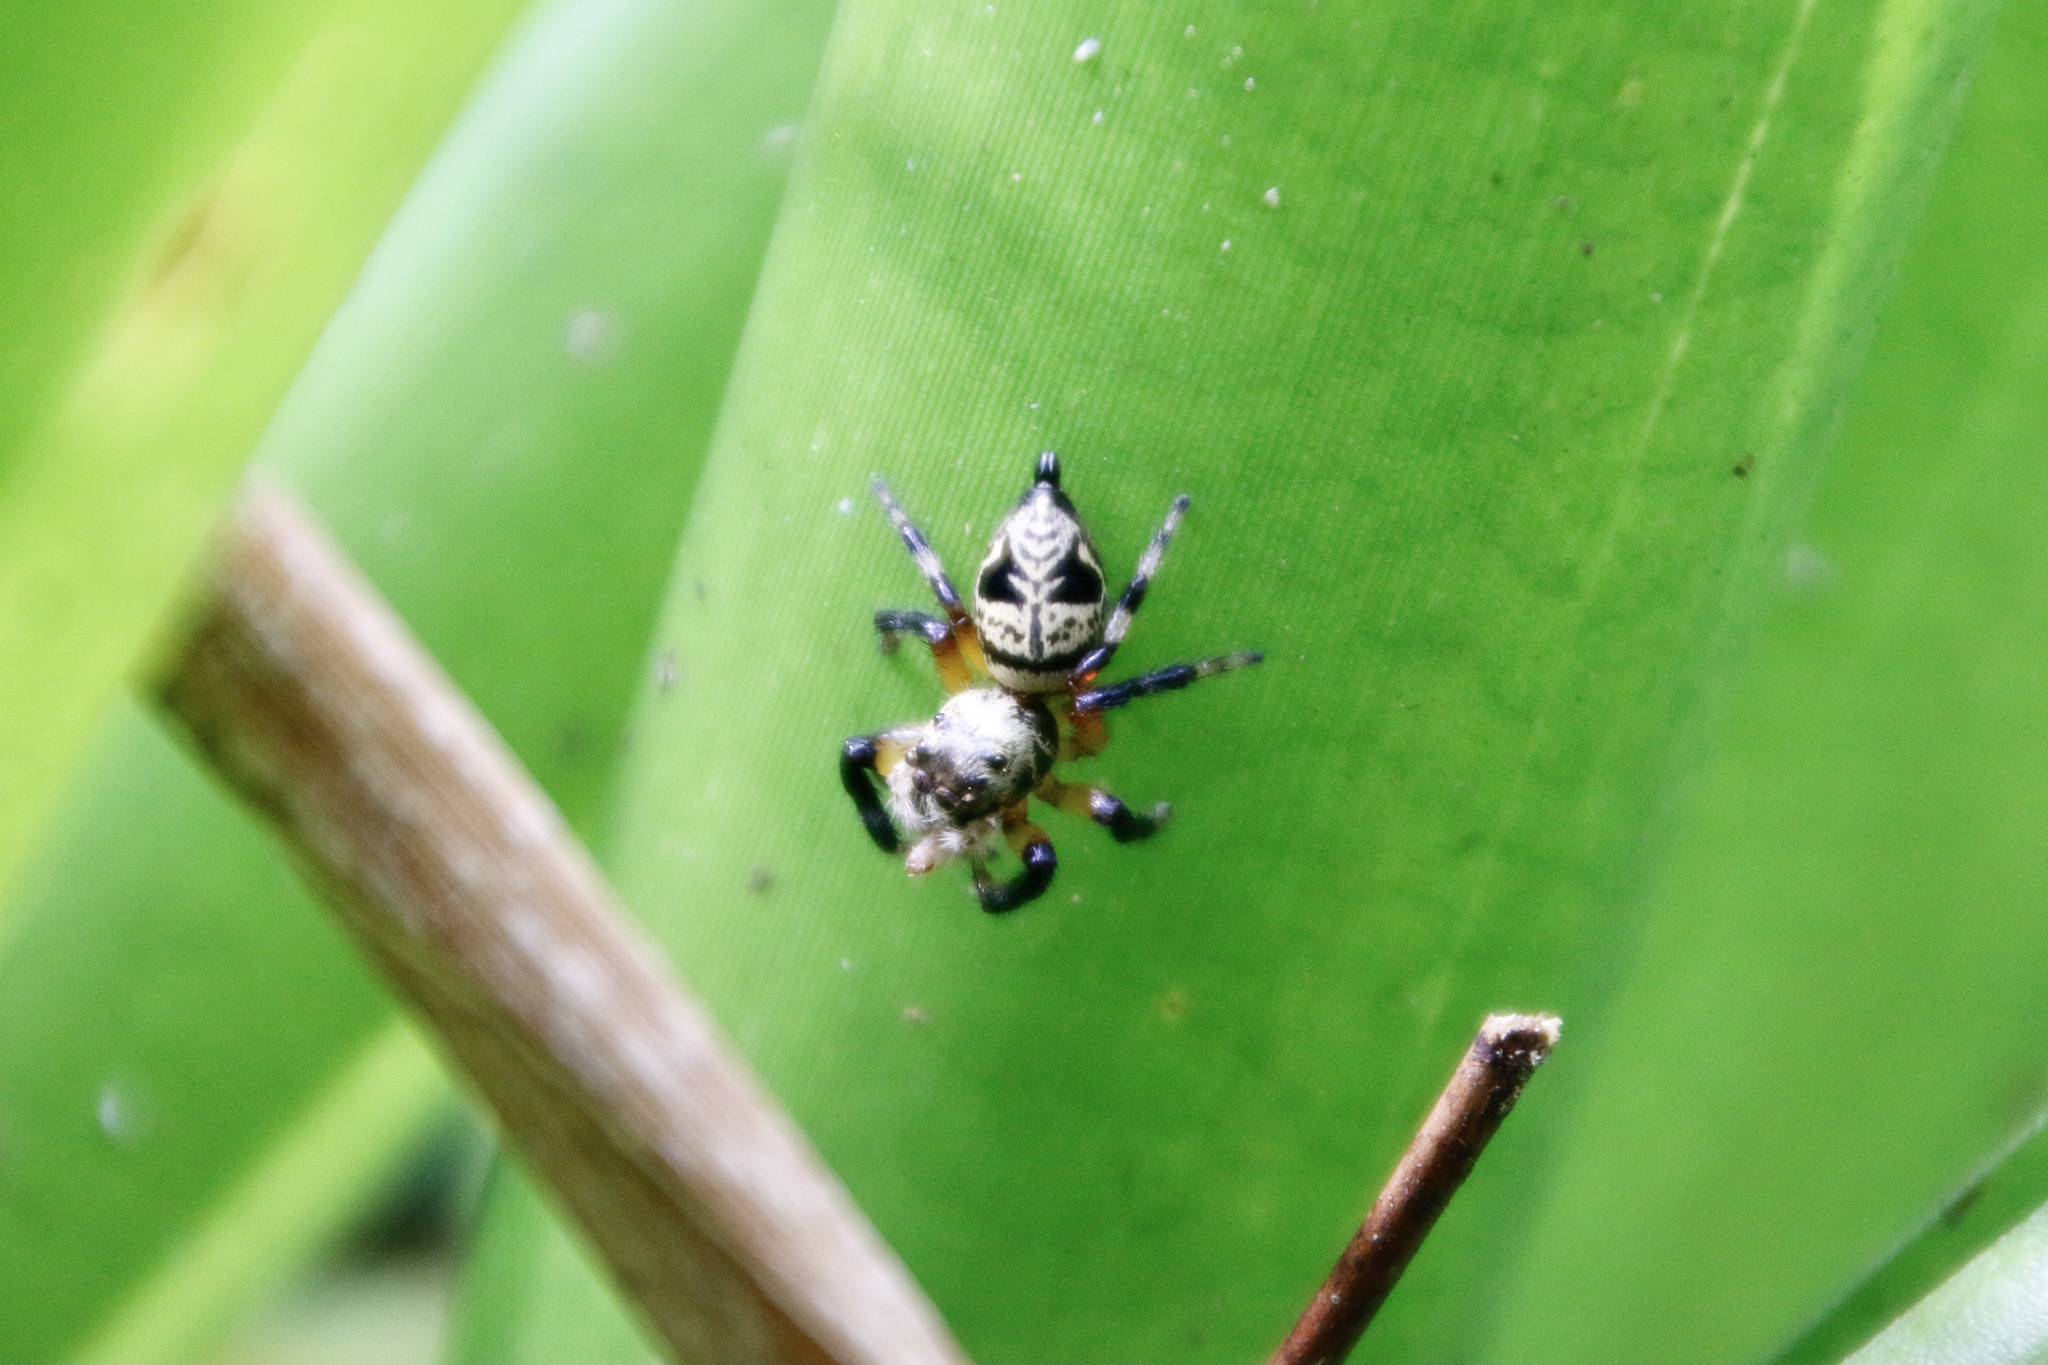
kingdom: Animalia
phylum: Arthropoda
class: Arachnida
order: Araneae
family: Salticidae
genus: Phiale
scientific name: Phiale formosa
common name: Jumping spiders
